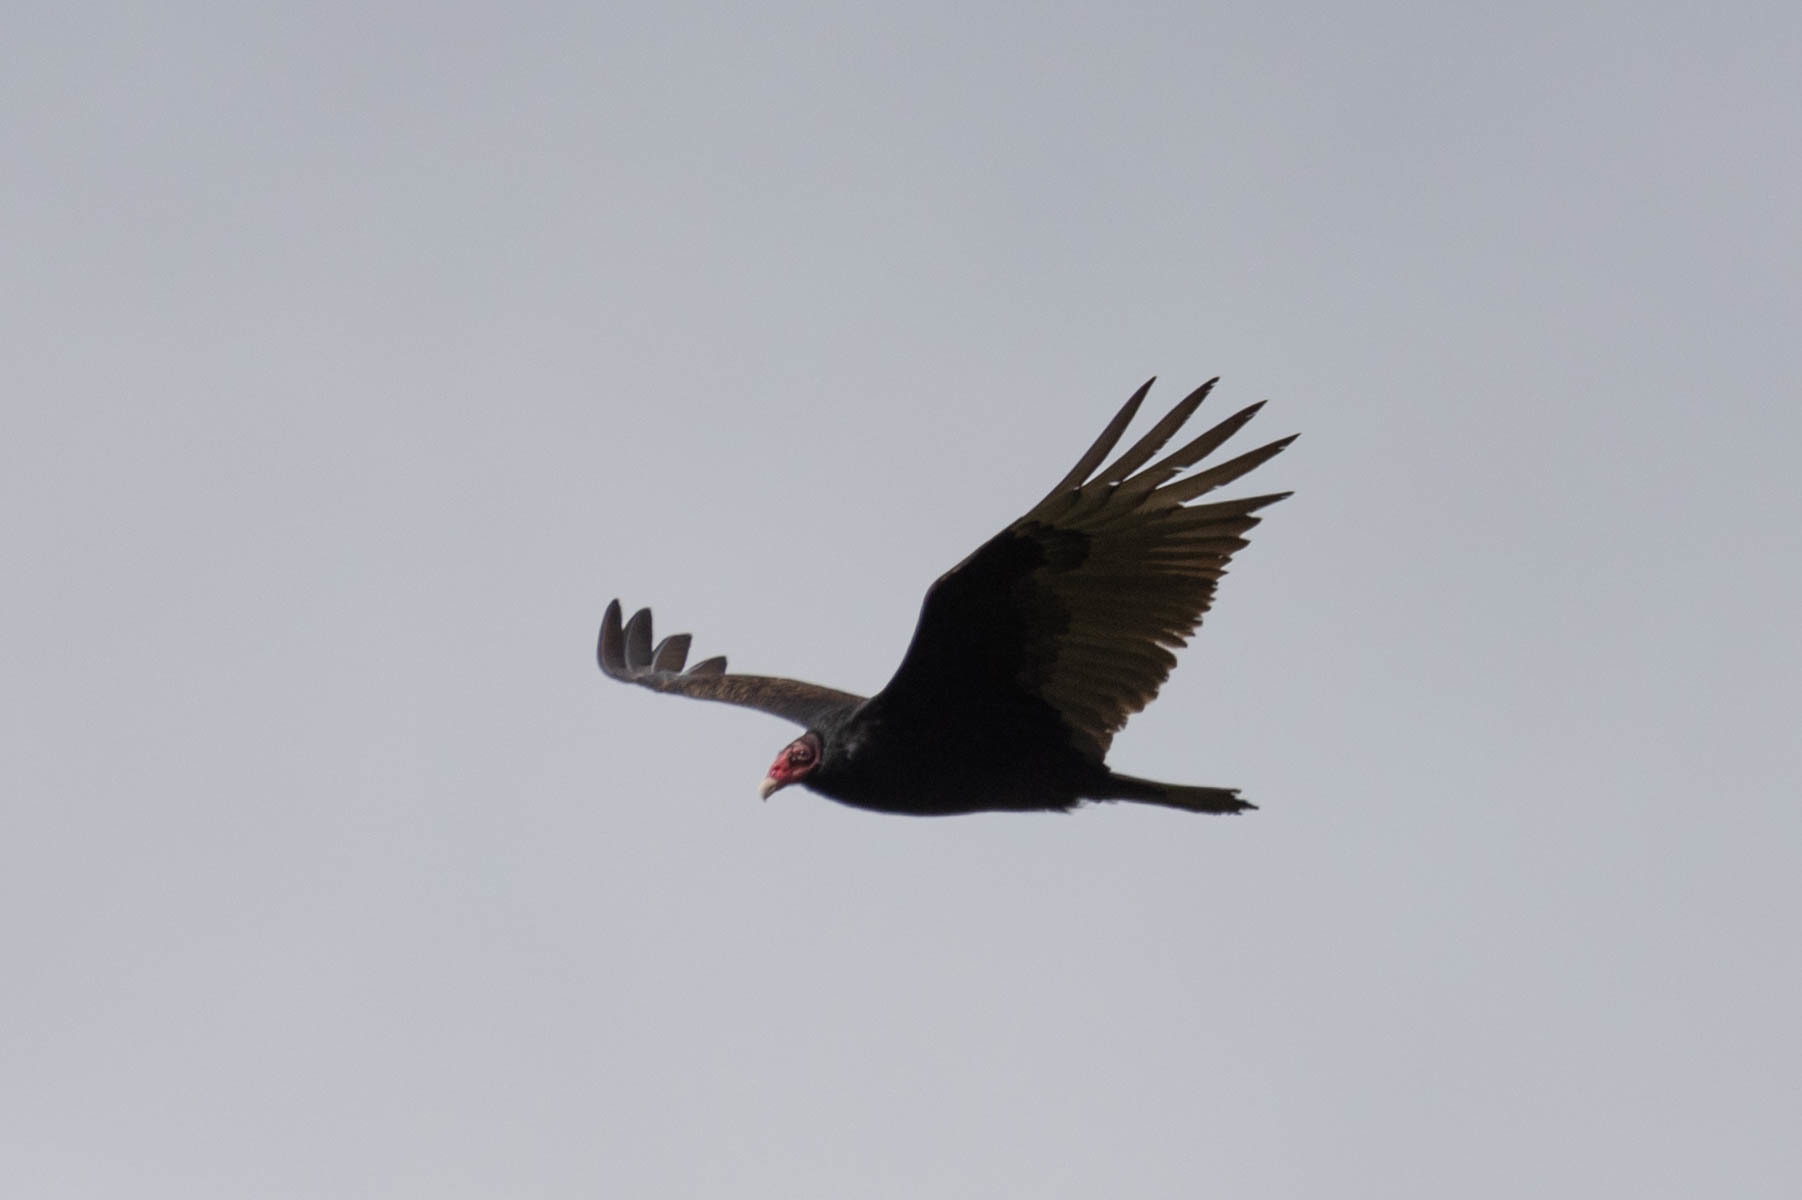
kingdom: Animalia
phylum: Chordata
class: Aves
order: Accipitriformes
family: Cathartidae
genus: Cathartes
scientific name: Cathartes aura
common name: Turkey vulture
